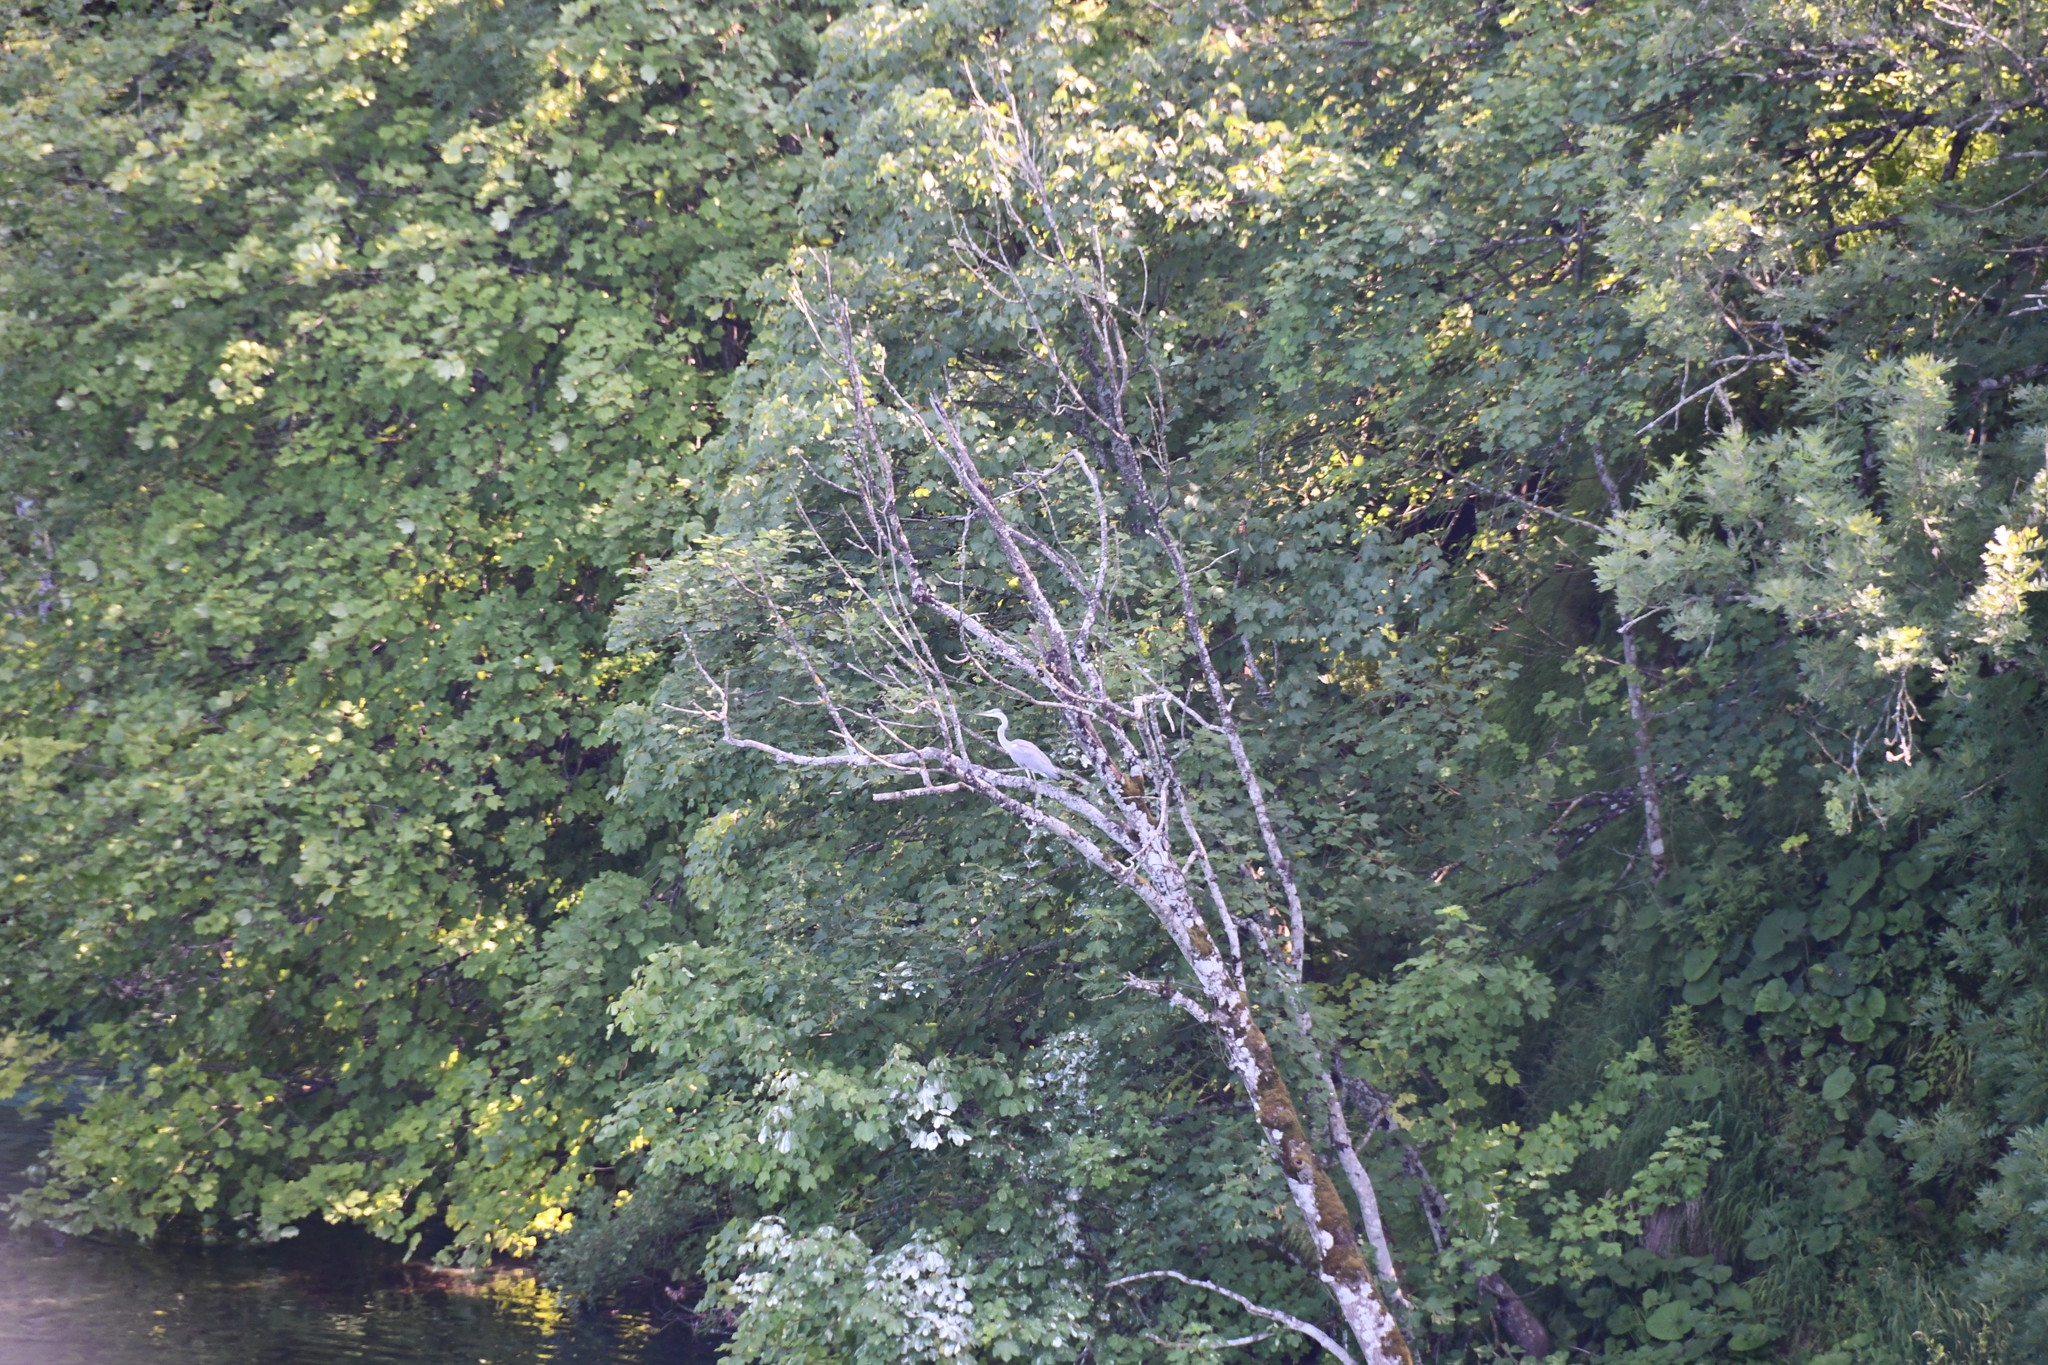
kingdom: Animalia
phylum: Chordata
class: Aves
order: Pelecaniformes
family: Ardeidae
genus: Ardea
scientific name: Ardea cinerea
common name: Grey heron
